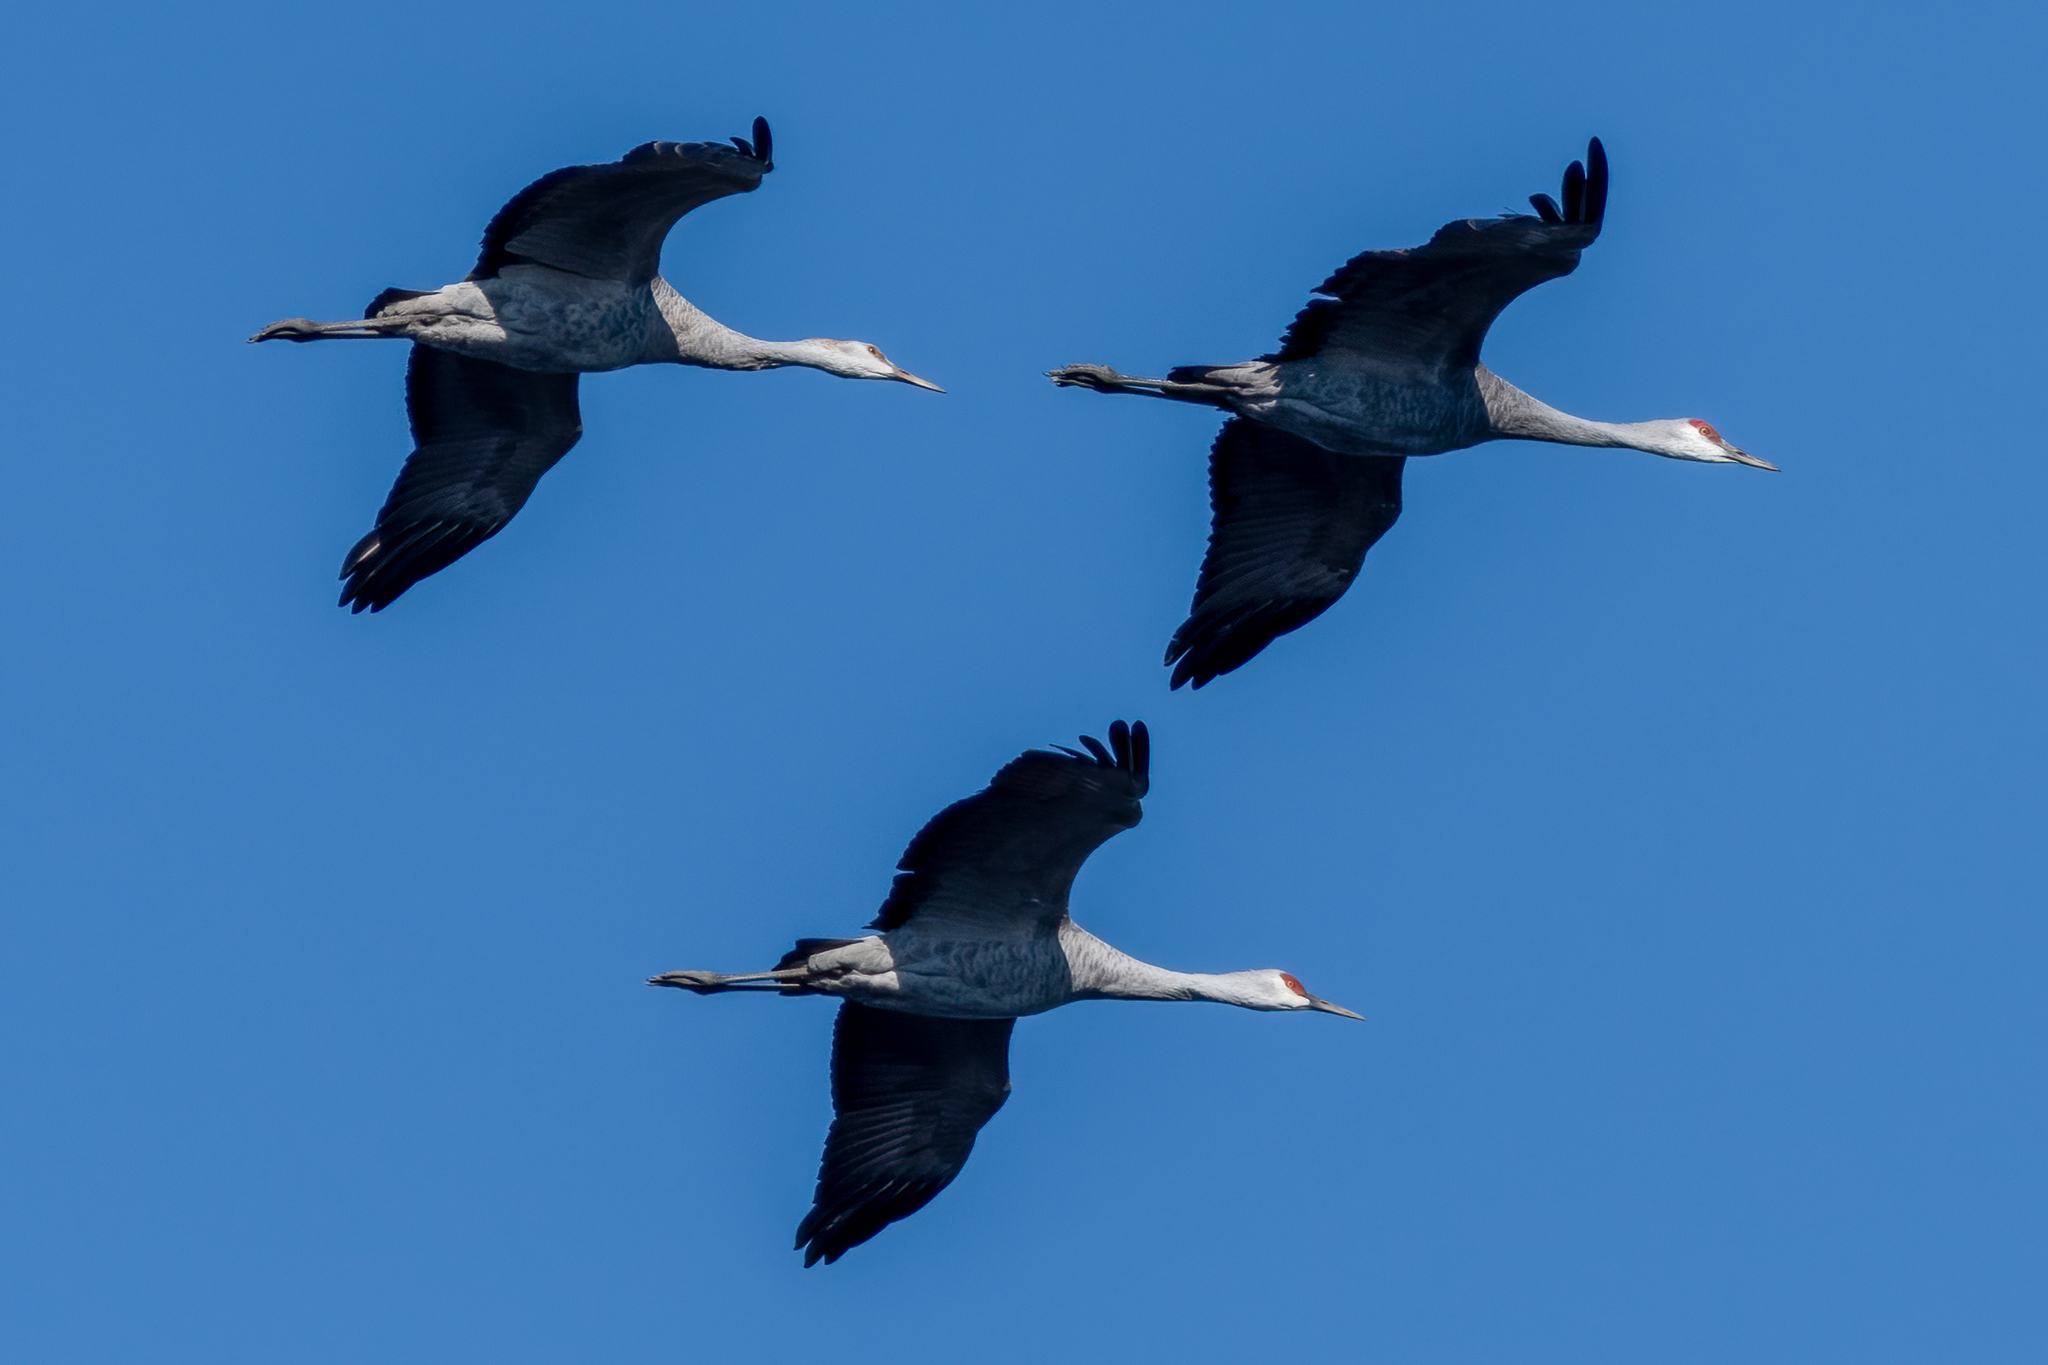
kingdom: Animalia
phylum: Chordata
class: Aves
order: Gruiformes
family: Gruidae
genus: Grus
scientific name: Grus canadensis
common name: Sandhill crane
